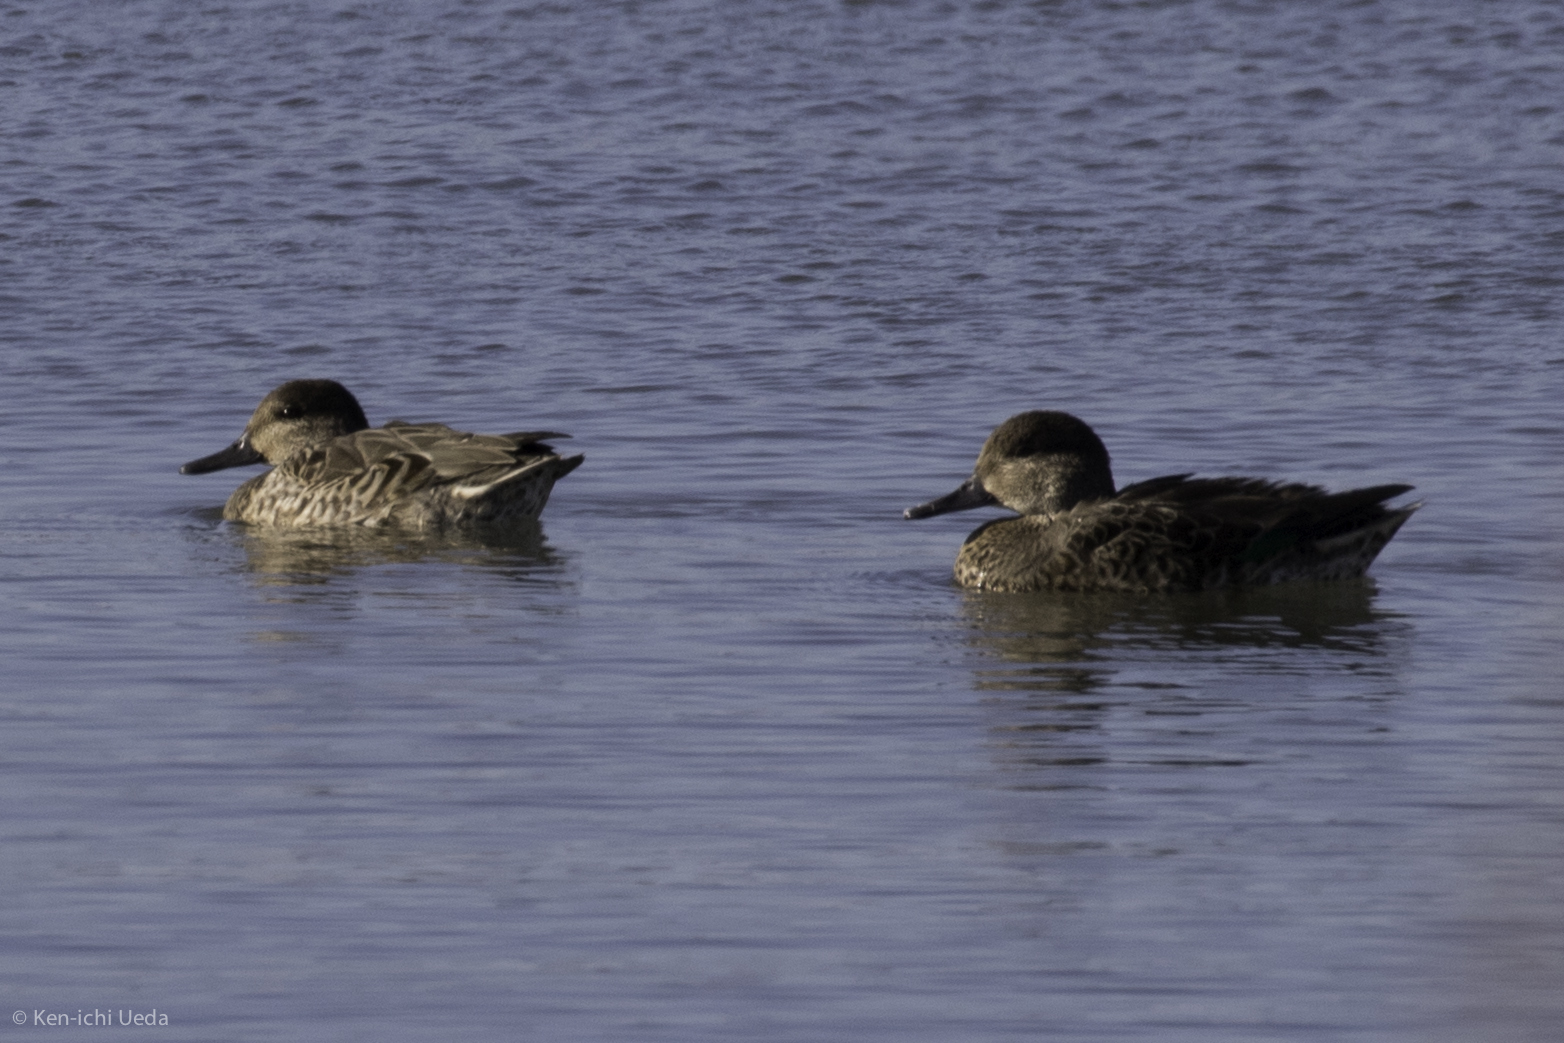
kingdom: Animalia
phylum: Chordata
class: Aves
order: Anseriformes
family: Anatidae
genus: Anas
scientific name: Anas crecca
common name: Eurasian teal
